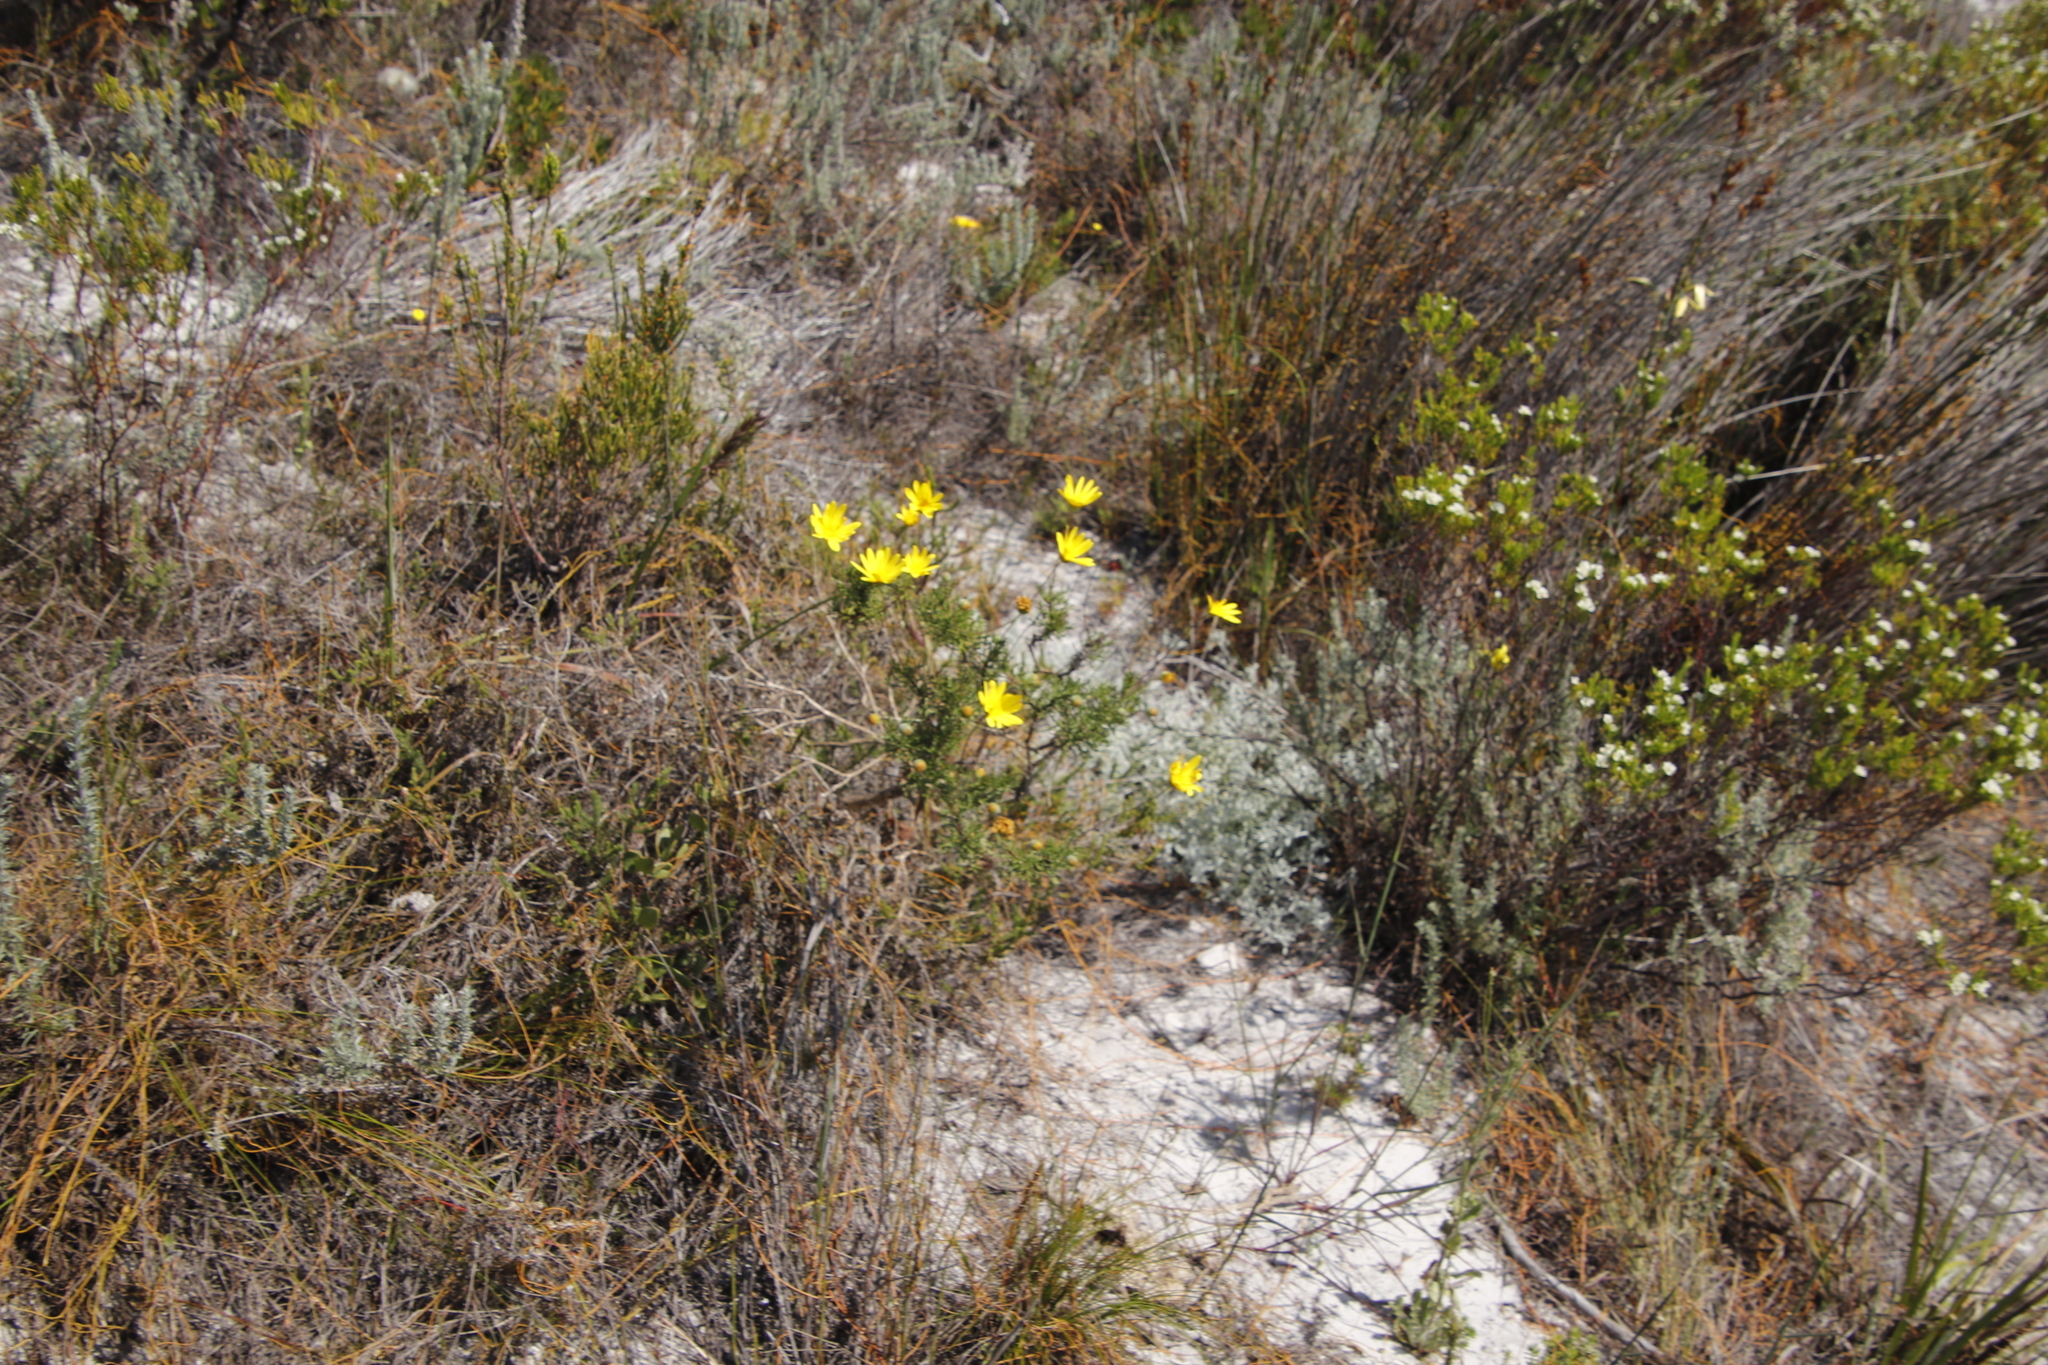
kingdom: Plantae
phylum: Tracheophyta
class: Magnoliopsida
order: Laurales
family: Lauraceae
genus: Cassytha
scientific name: Cassytha ciliolata
